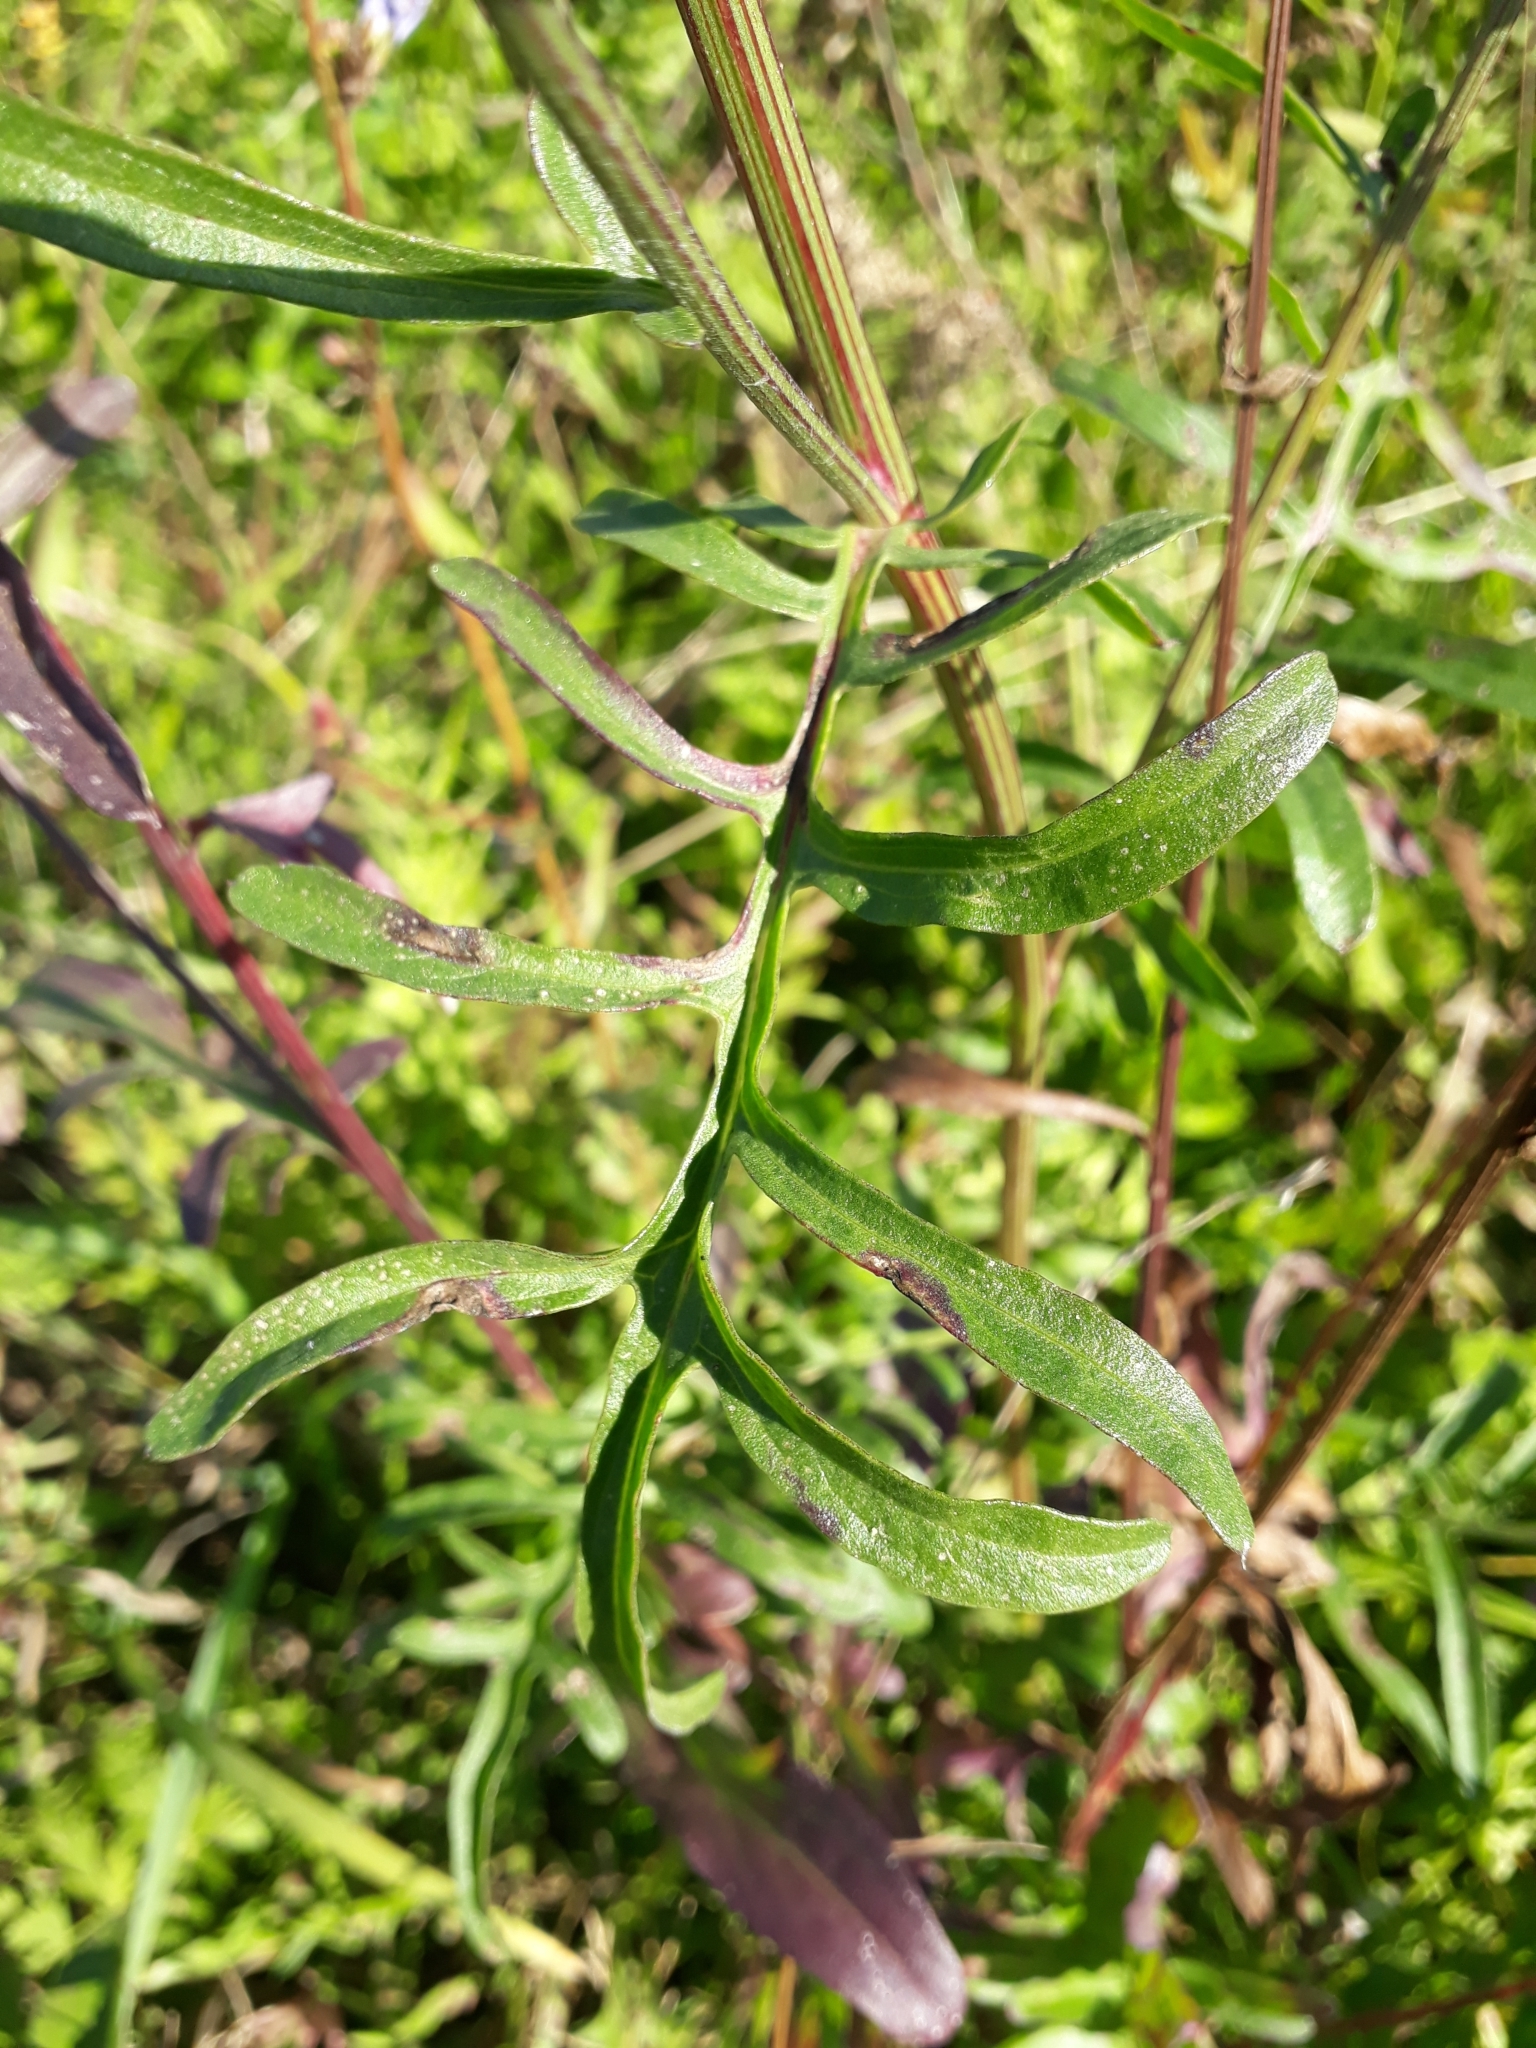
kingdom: Plantae
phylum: Tracheophyta
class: Magnoliopsida
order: Asterales
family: Asteraceae
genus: Centaurea
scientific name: Centaurea scabiosa
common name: Greater knapweed
